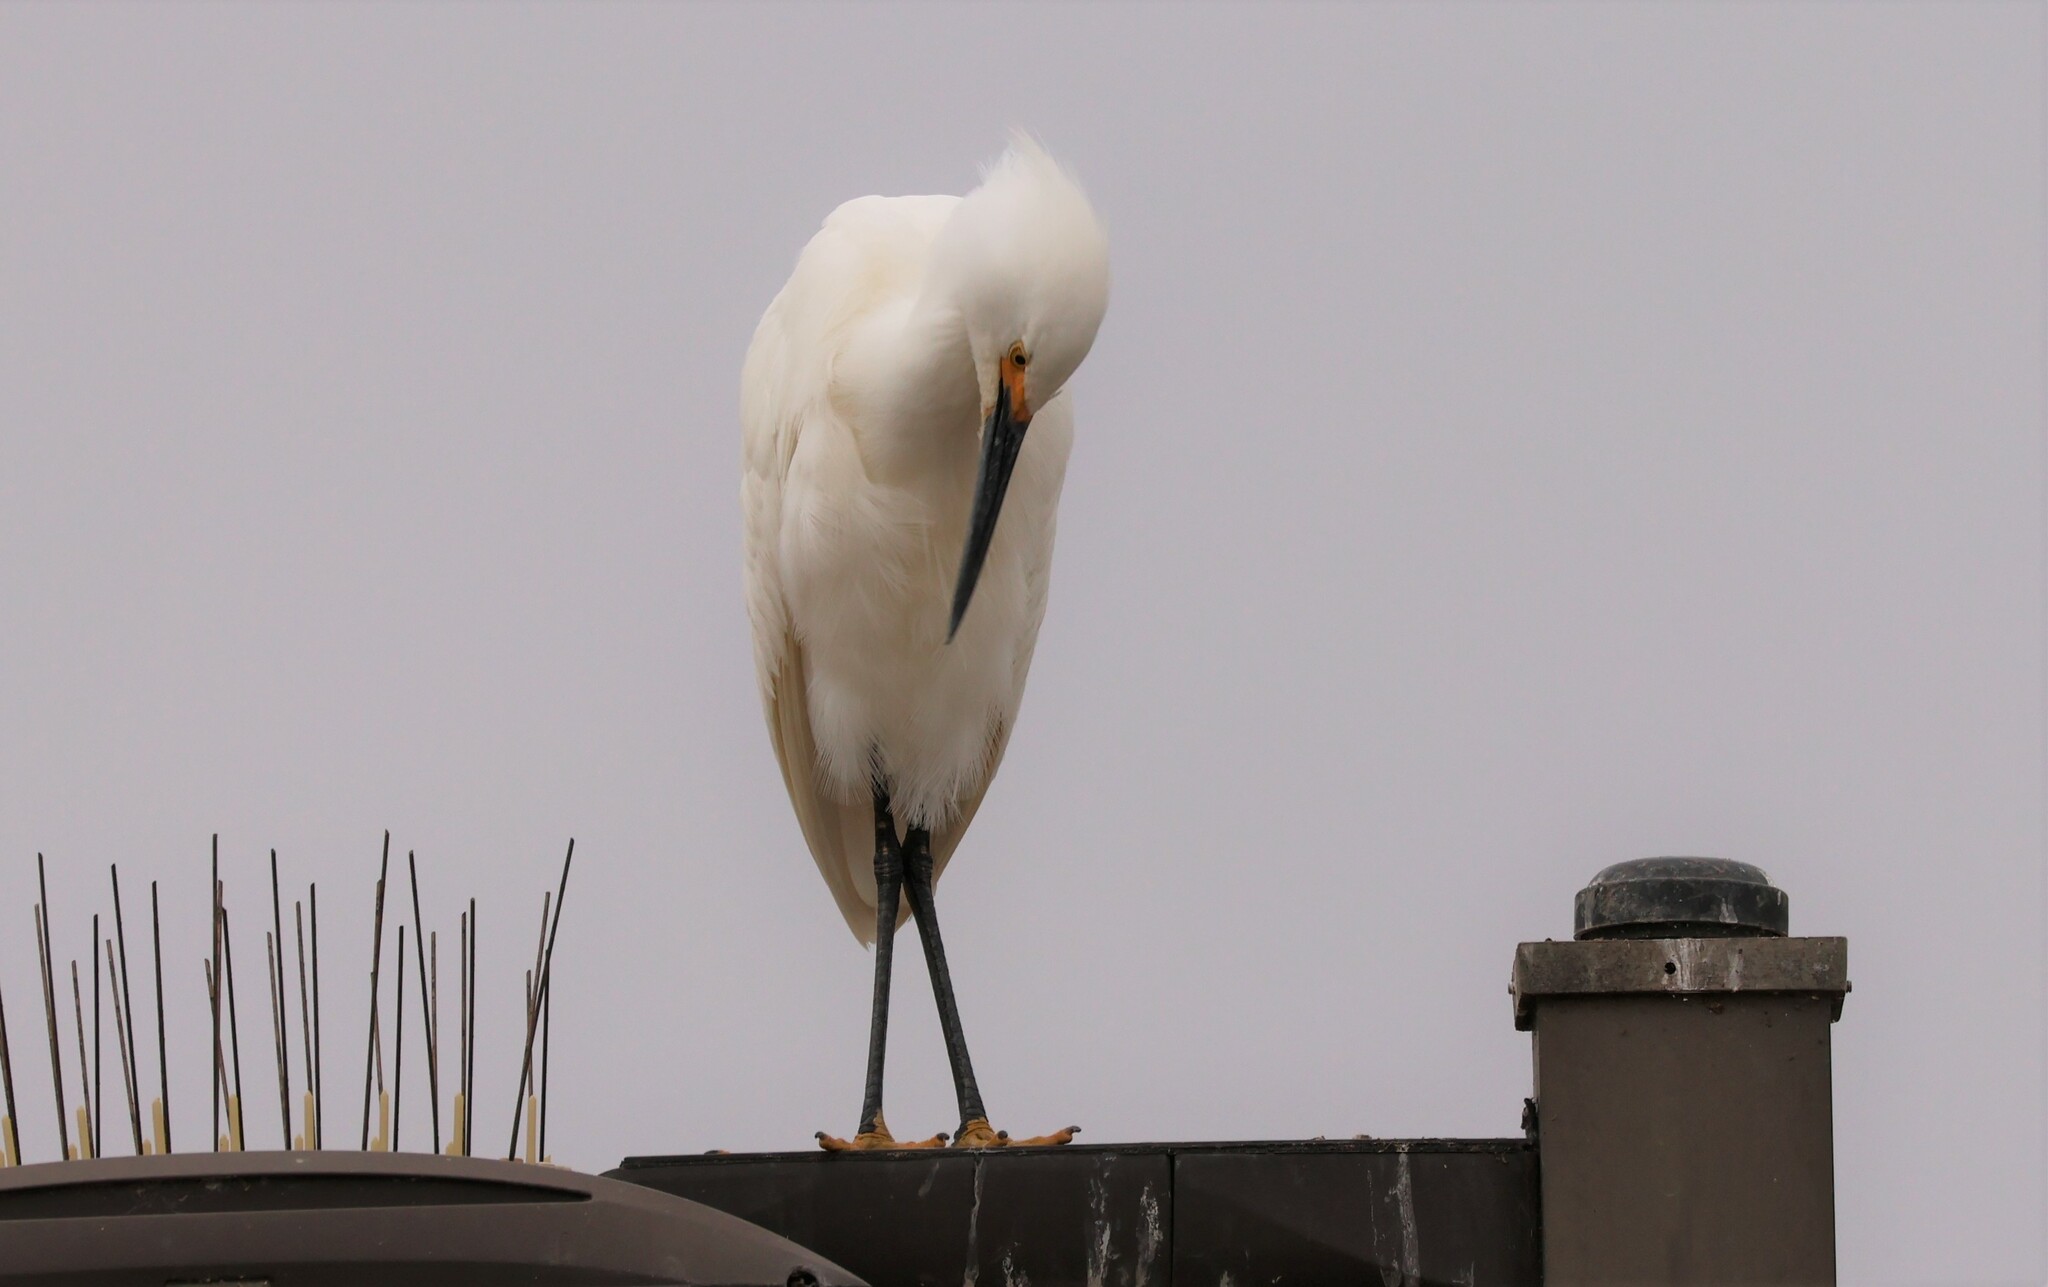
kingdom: Animalia
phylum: Chordata
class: Aves
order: Pelecaniformes
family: Ardeidae
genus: Egretta
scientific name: Egretta thula
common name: Snowy egret
